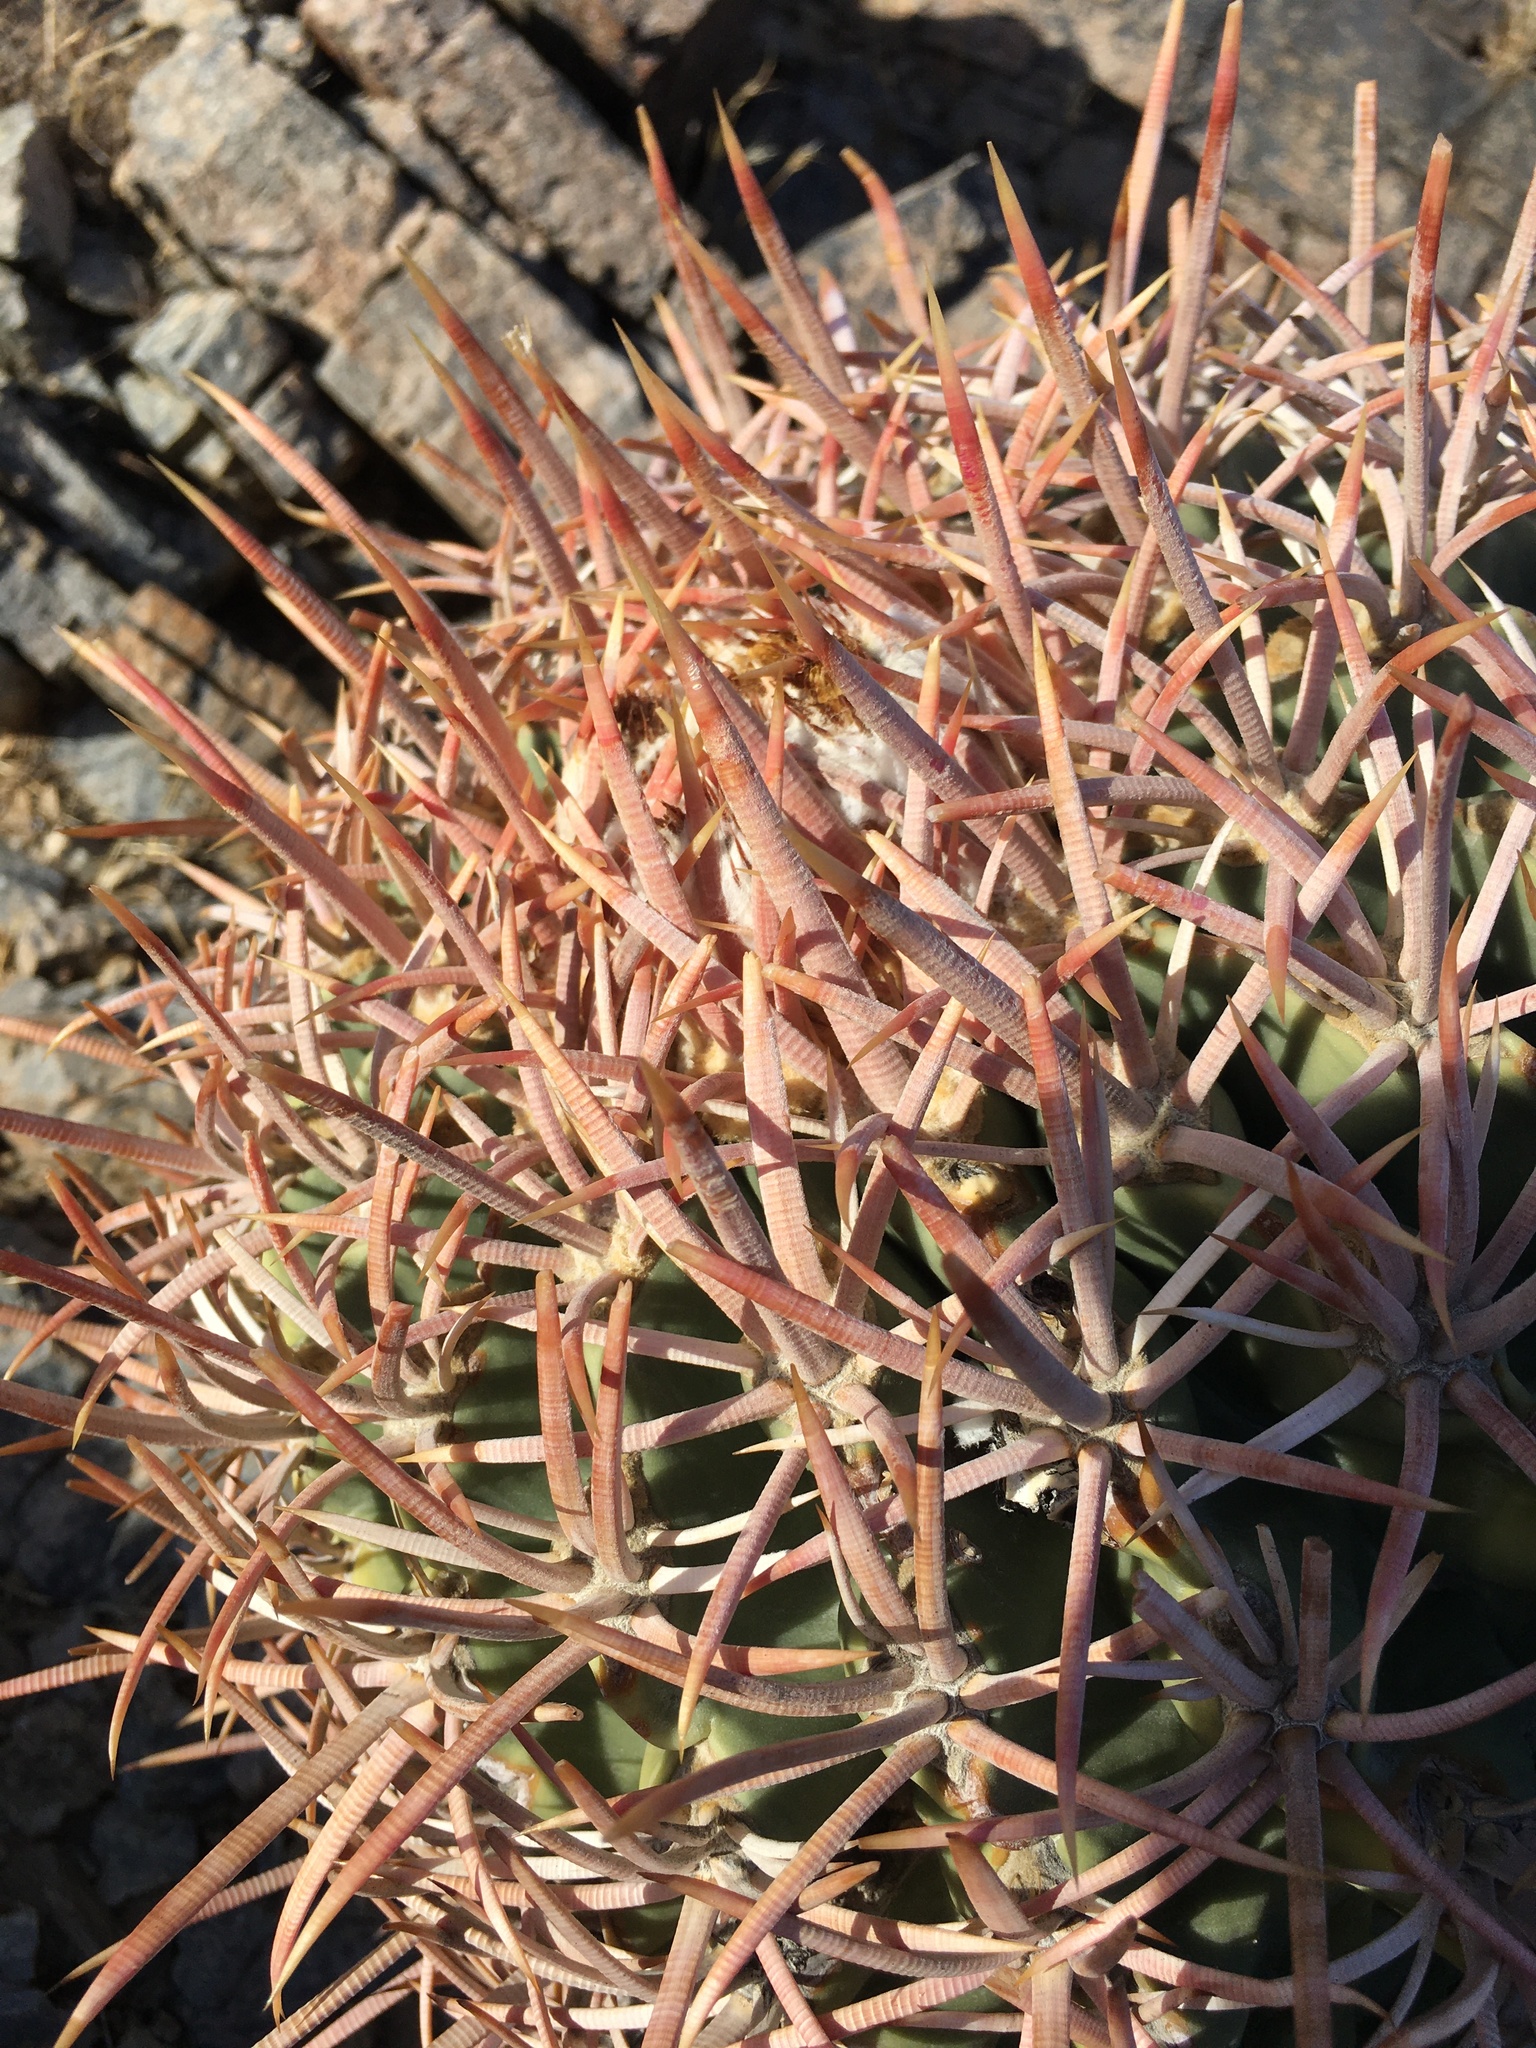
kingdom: Plantae
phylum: Tracheophyta
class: Magnoliopsida
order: Caryophyllales
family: Cactaceae
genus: Echinocactus
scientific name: Echinocactus polycephalus
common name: Cottontop cactus
